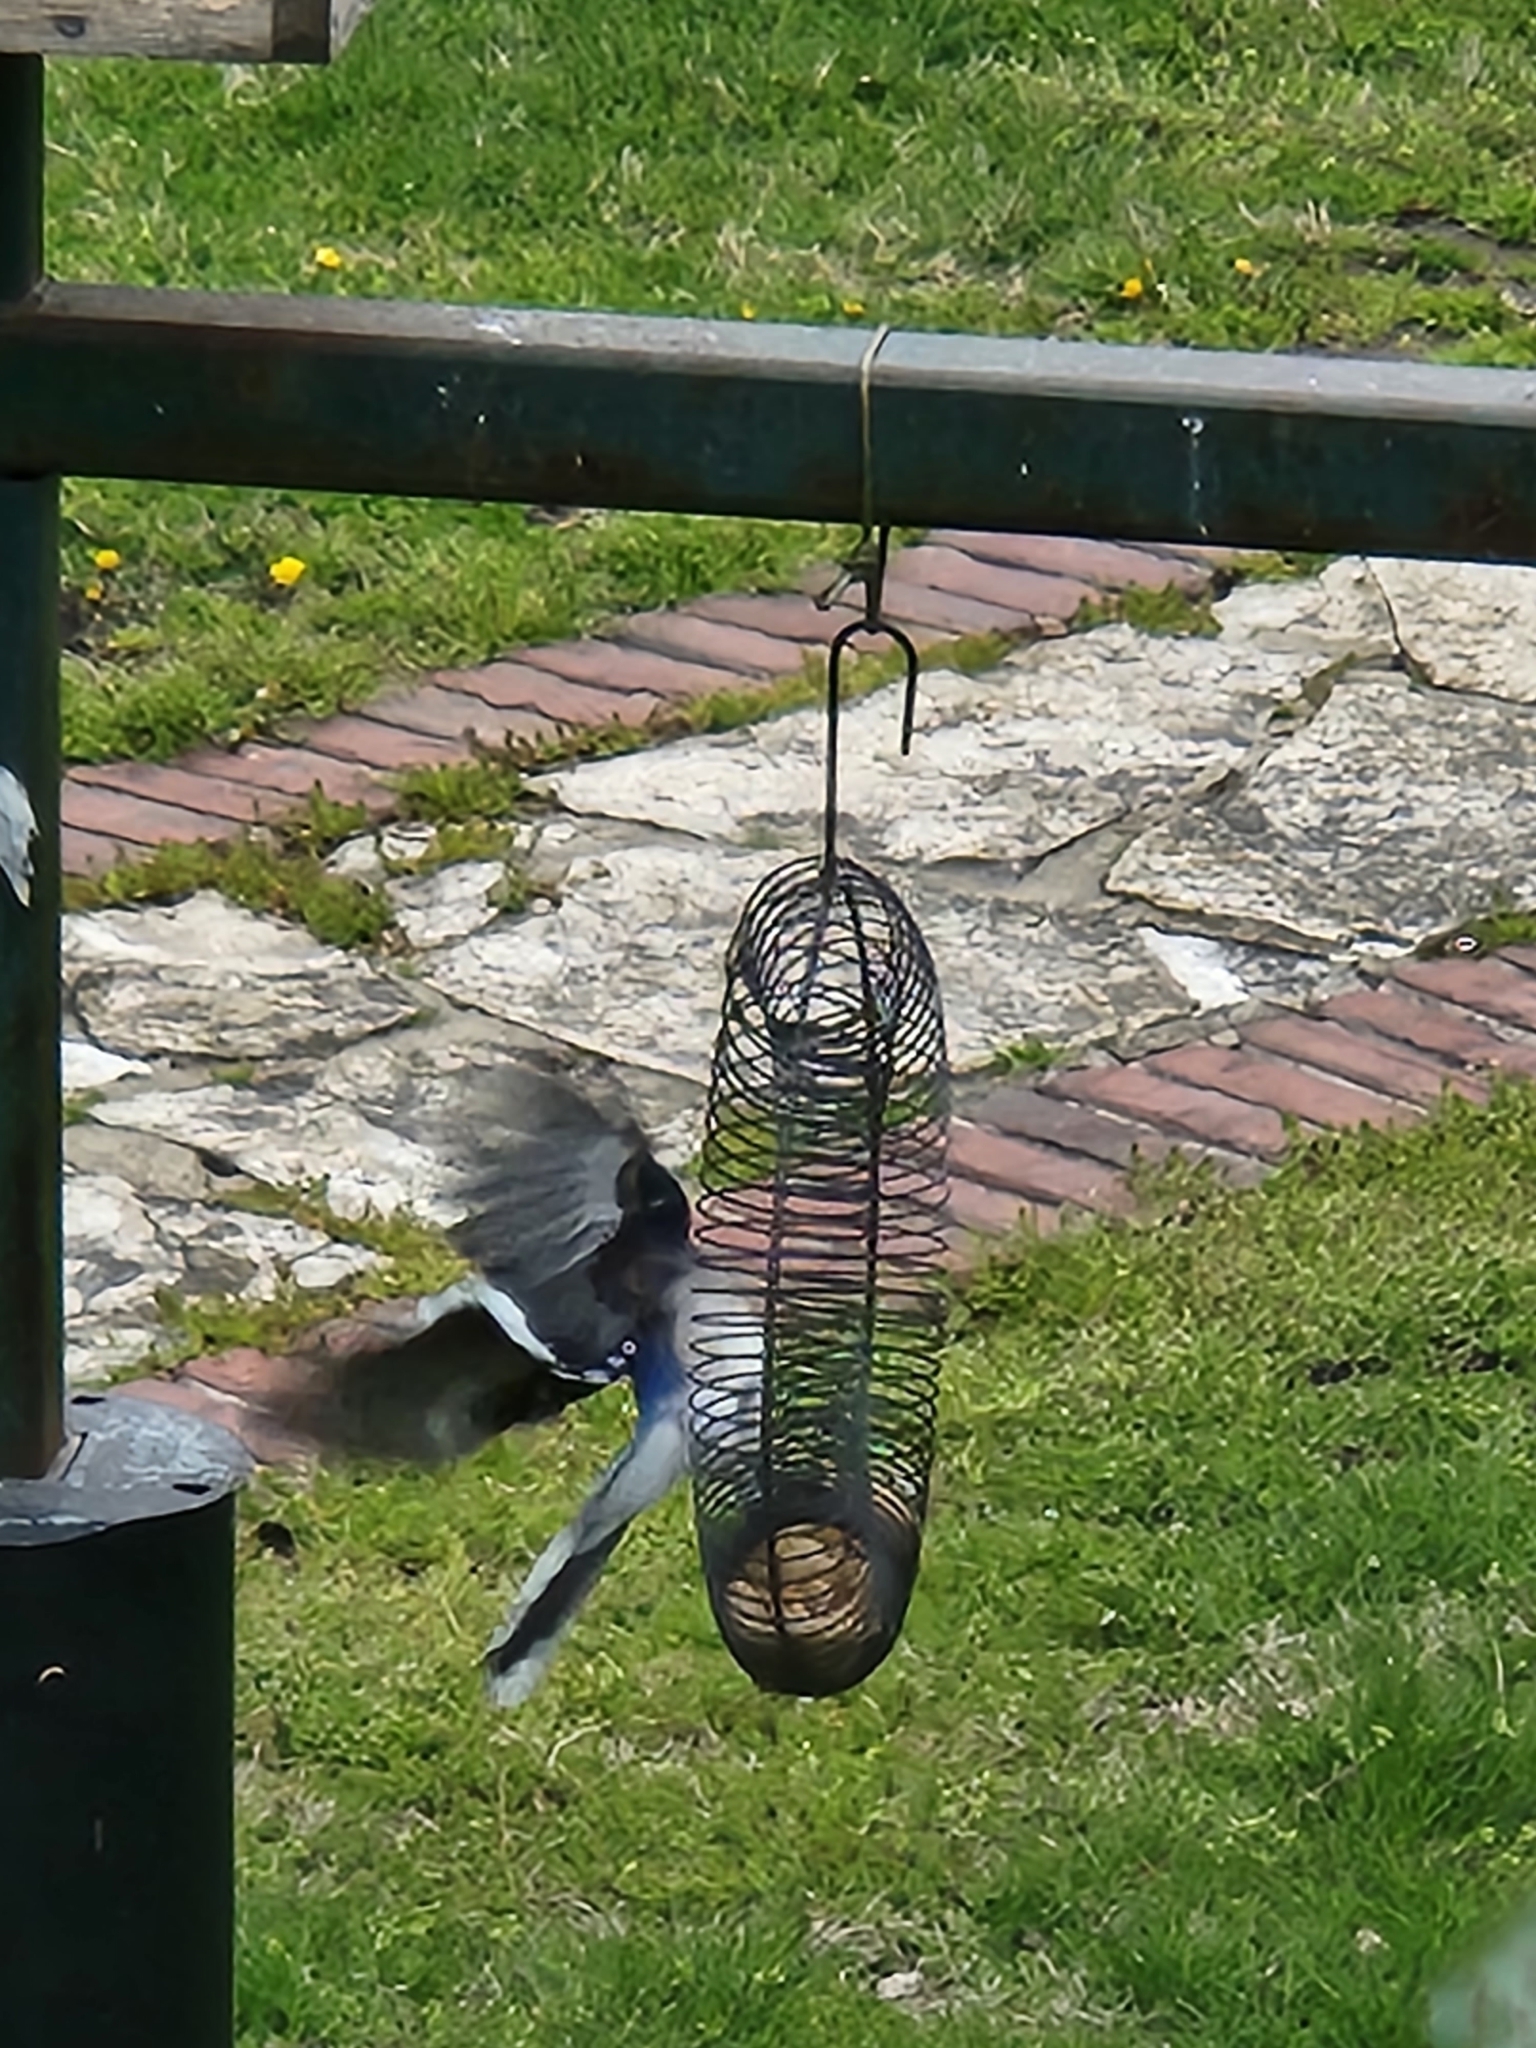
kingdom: Animalia
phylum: Chordata
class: Aves
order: Passeriformes
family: Corvidae
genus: Cyanocitta
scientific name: Cyanocitta cristata
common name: Blue jay
